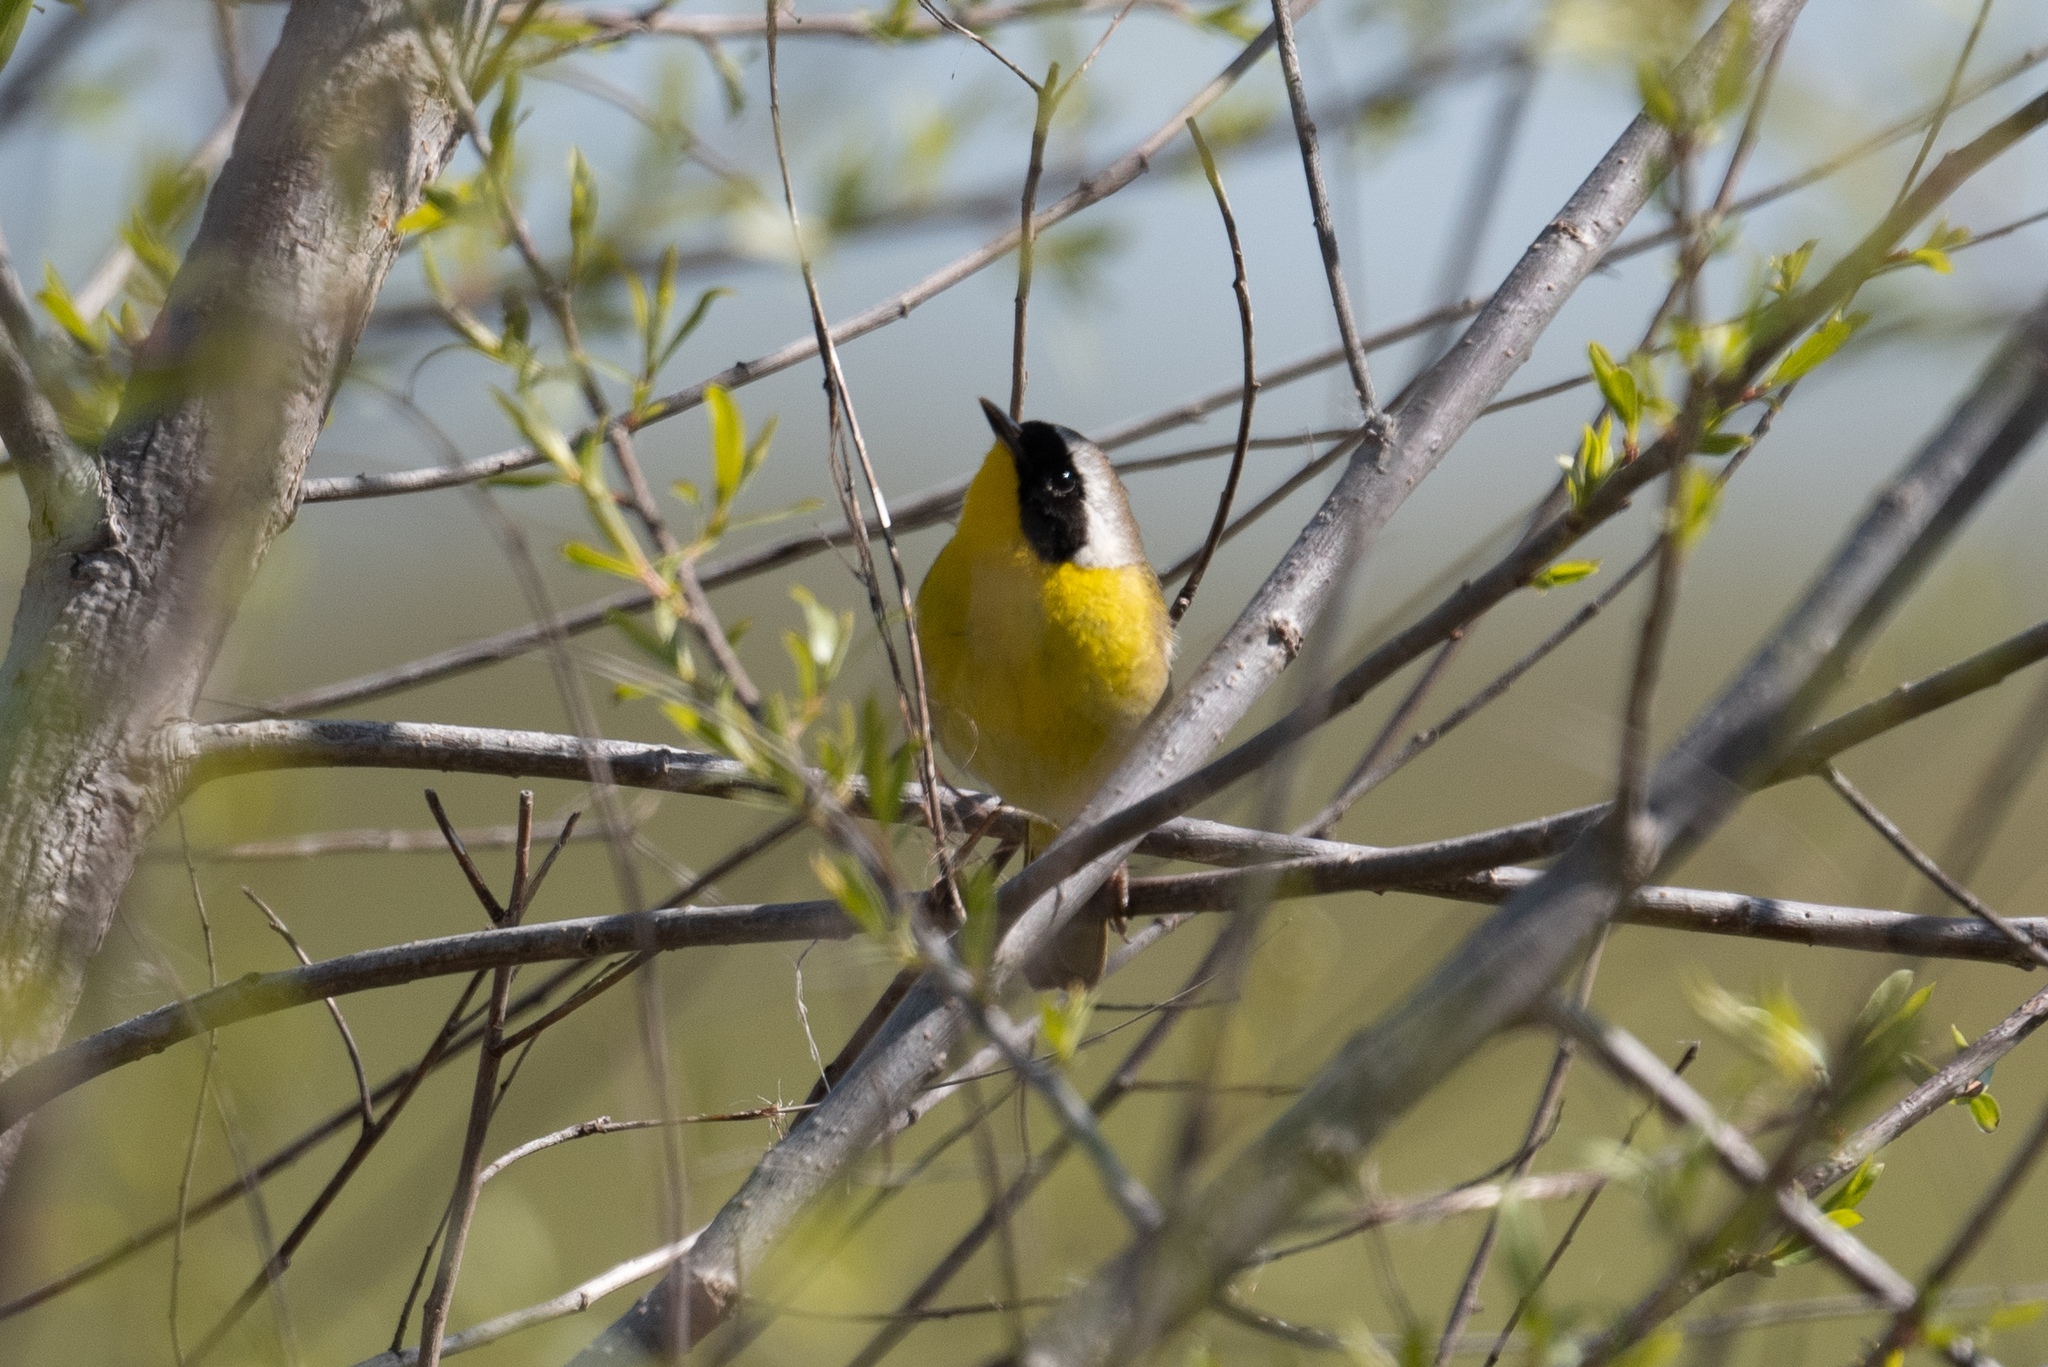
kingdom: Animalia
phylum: Chordata
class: Aves
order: Passeriformes
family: Parulidae
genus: Geothlypis
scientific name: Geothlypis trichas
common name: Common yellowthroat
